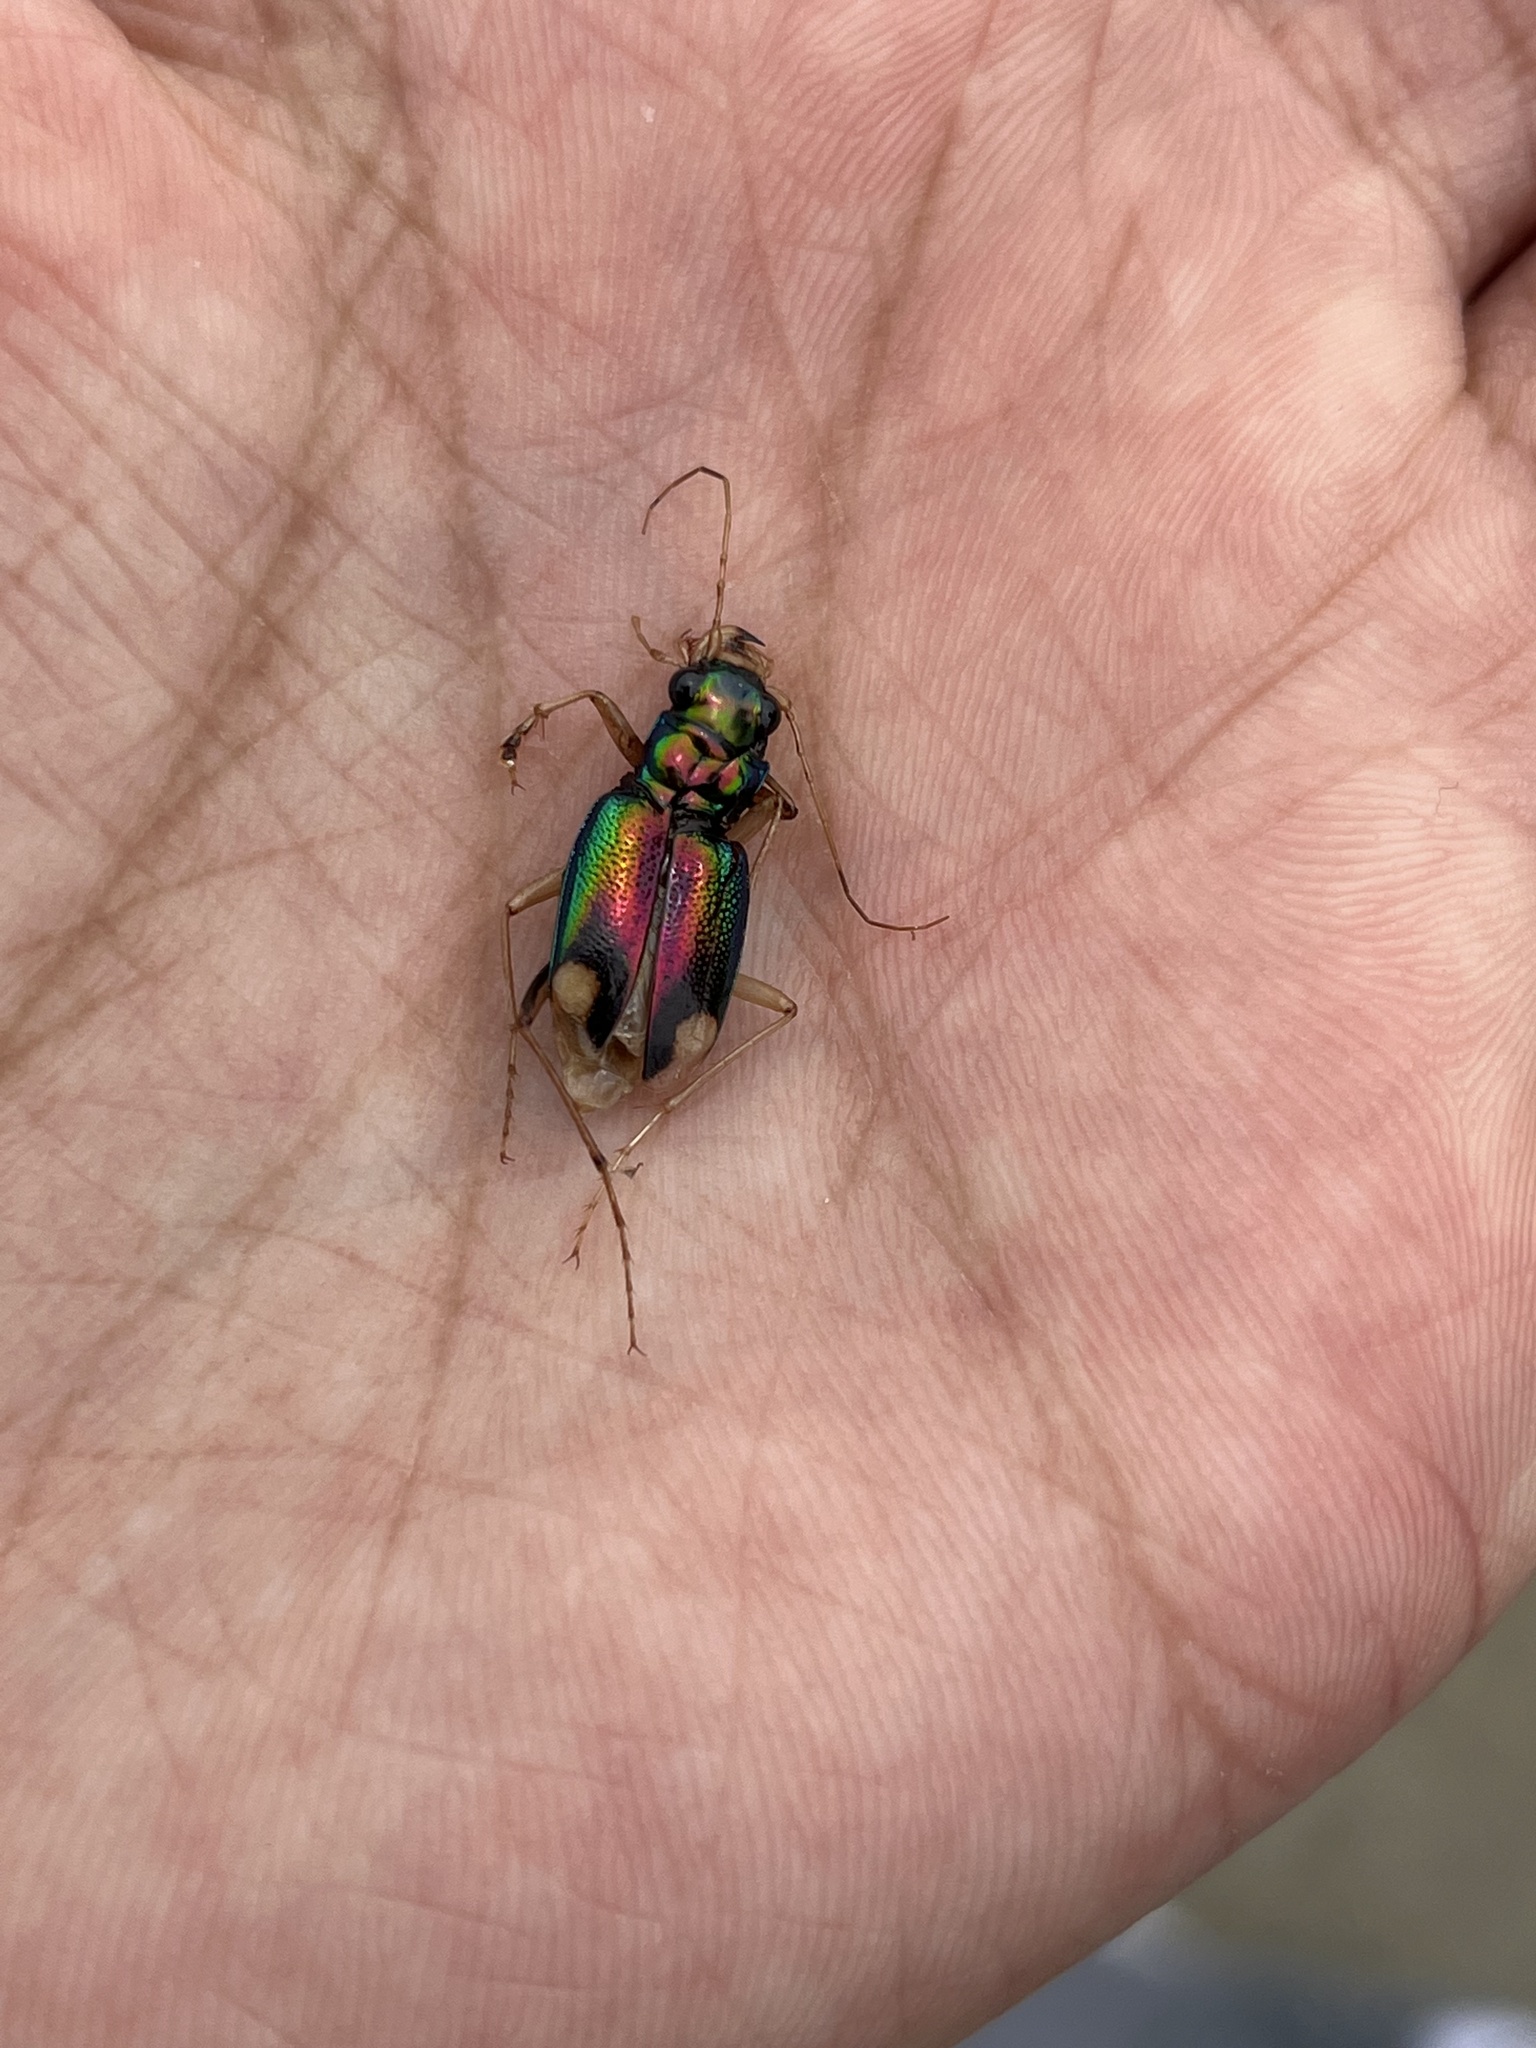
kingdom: Animalia
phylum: Arthropoda
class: Insecta
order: Coleoptera
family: Carabidae
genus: Tetracha
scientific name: Tetracha carolina
